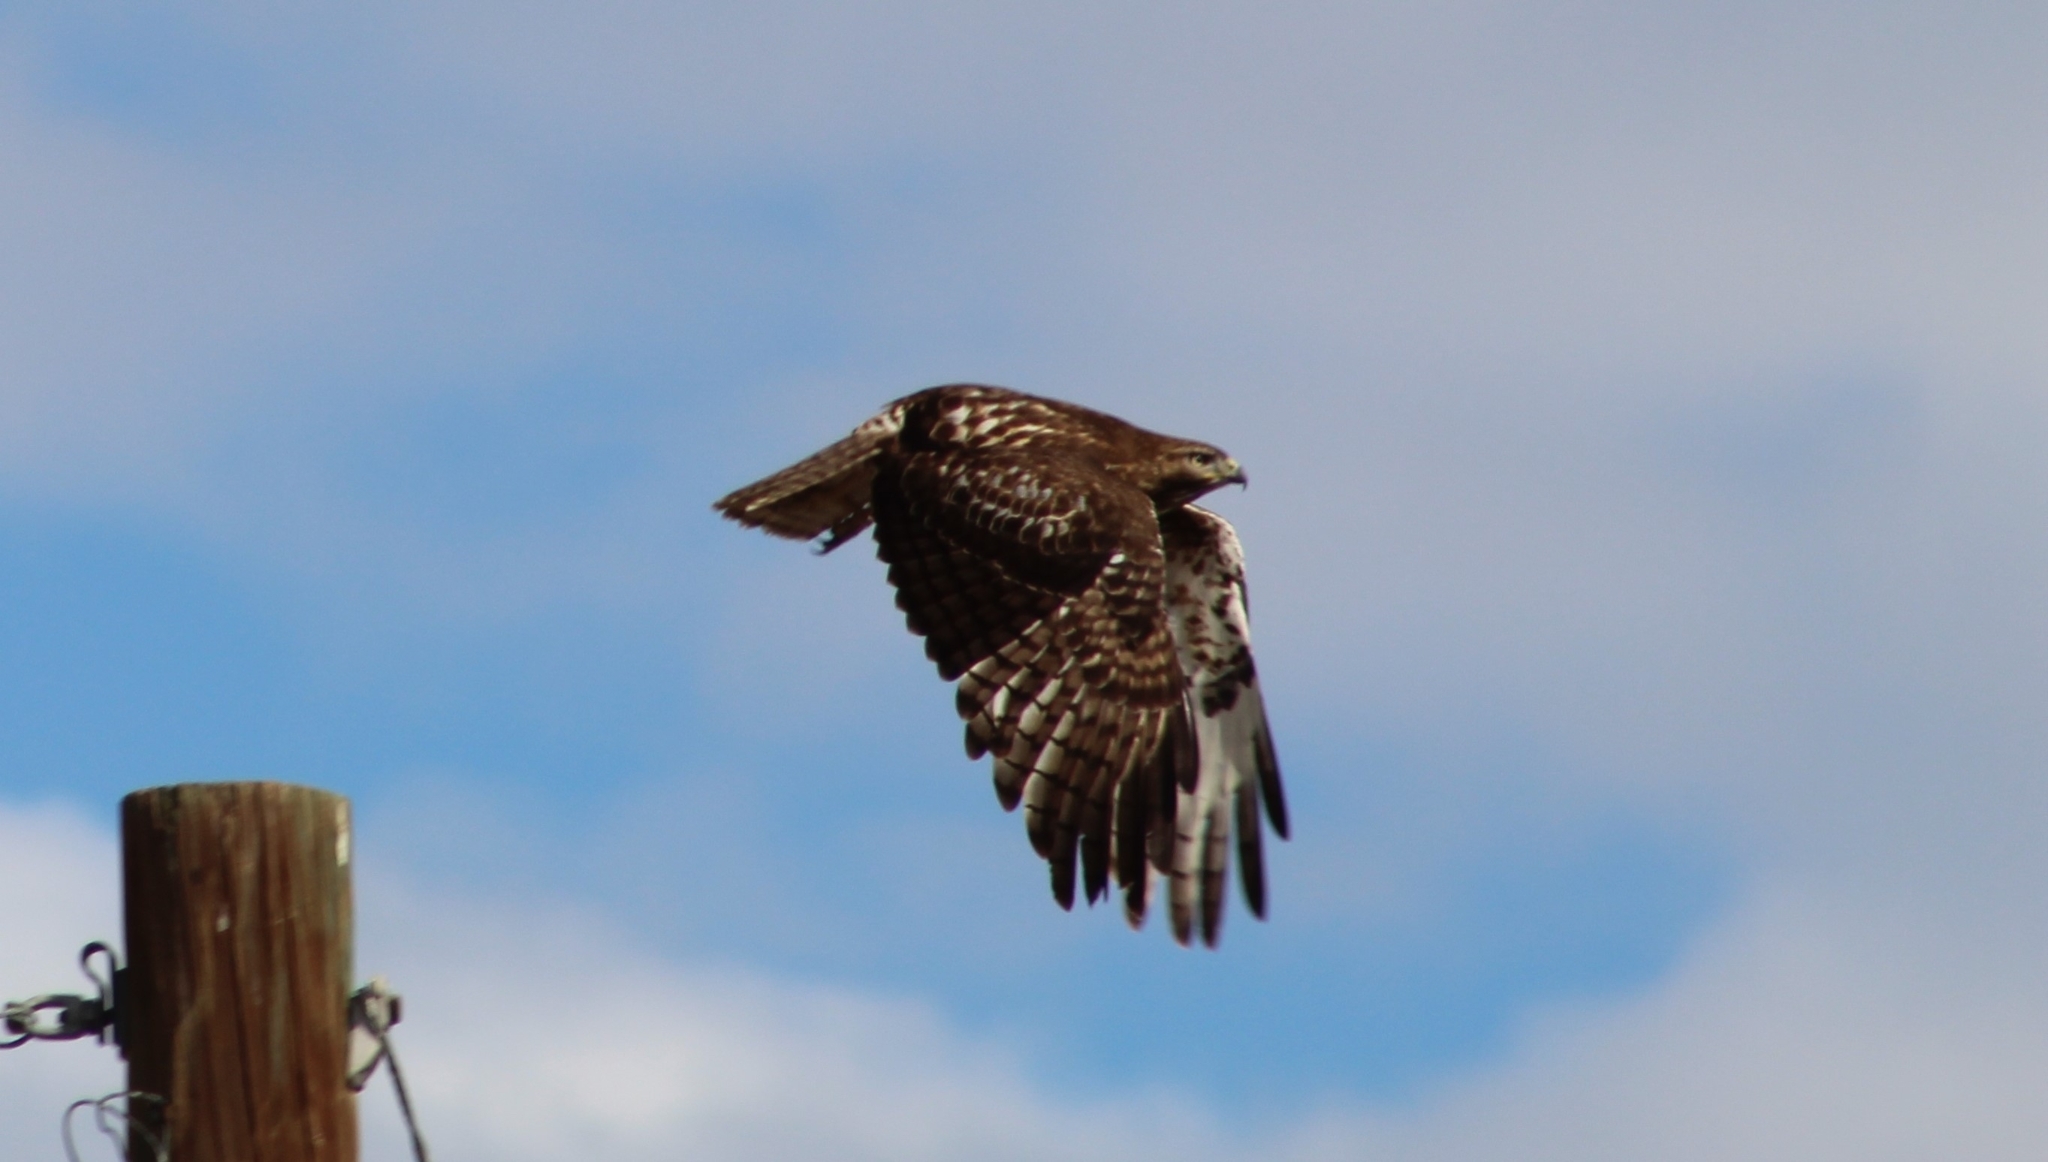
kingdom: Animalia
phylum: Chordata
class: Aves
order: Accipitriformes
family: Accipitridae
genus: Buteo
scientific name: Buteo jamaicensis
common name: Red-tailed hawk
